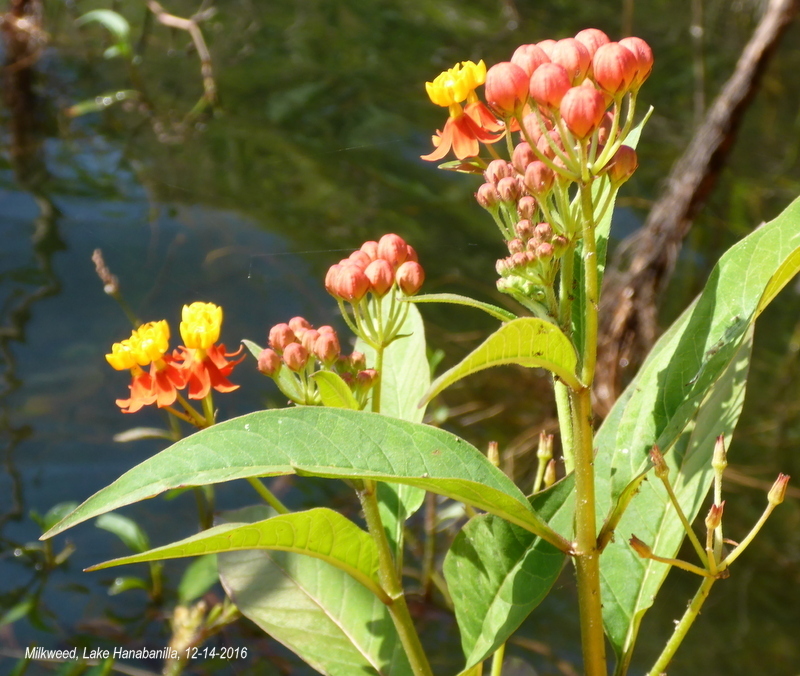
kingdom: Plantae
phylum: Tracheophyta
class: Magnoliopsida
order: Gentianales
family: Apocynaceae
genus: Asclepias
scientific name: Asclepias curassavica
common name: Bloodflower
